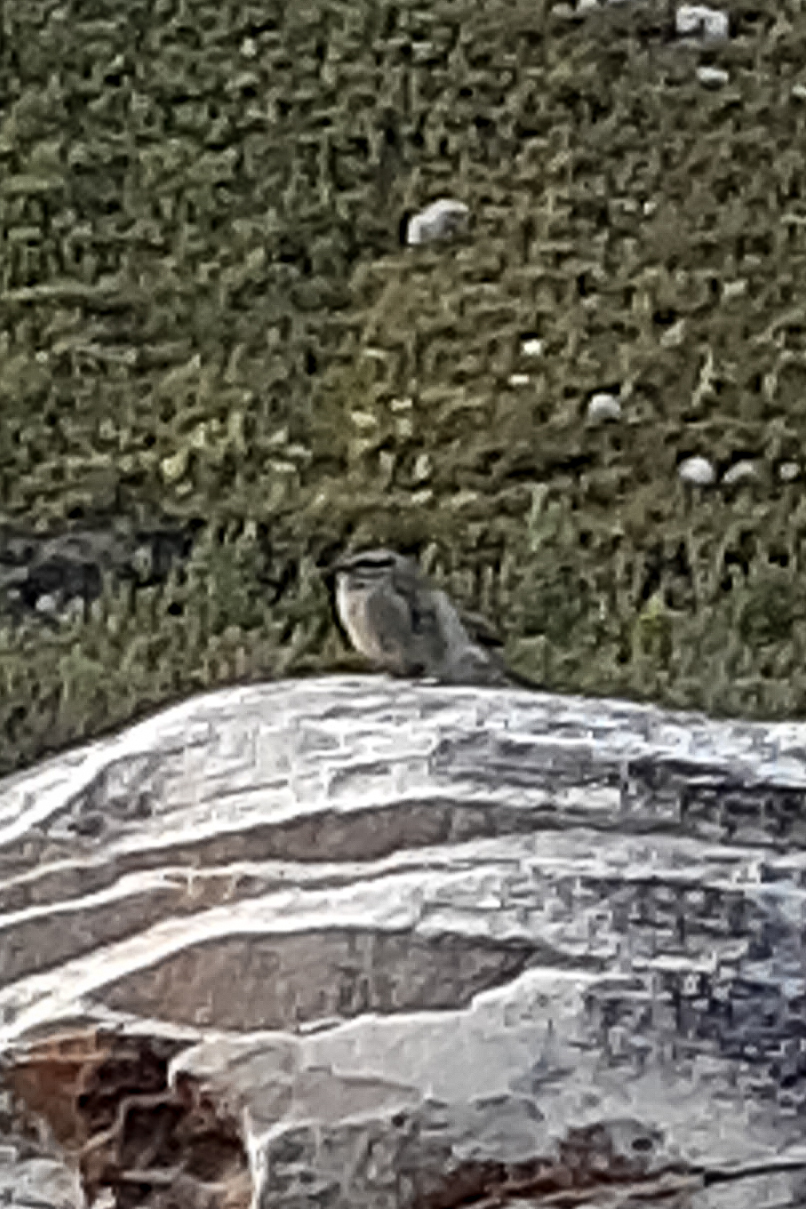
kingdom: Animalia
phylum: Chordata
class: Aves
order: Passeriformes
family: Emberizidae
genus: Emberiza
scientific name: Emberiza capensis
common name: Cape bunting
